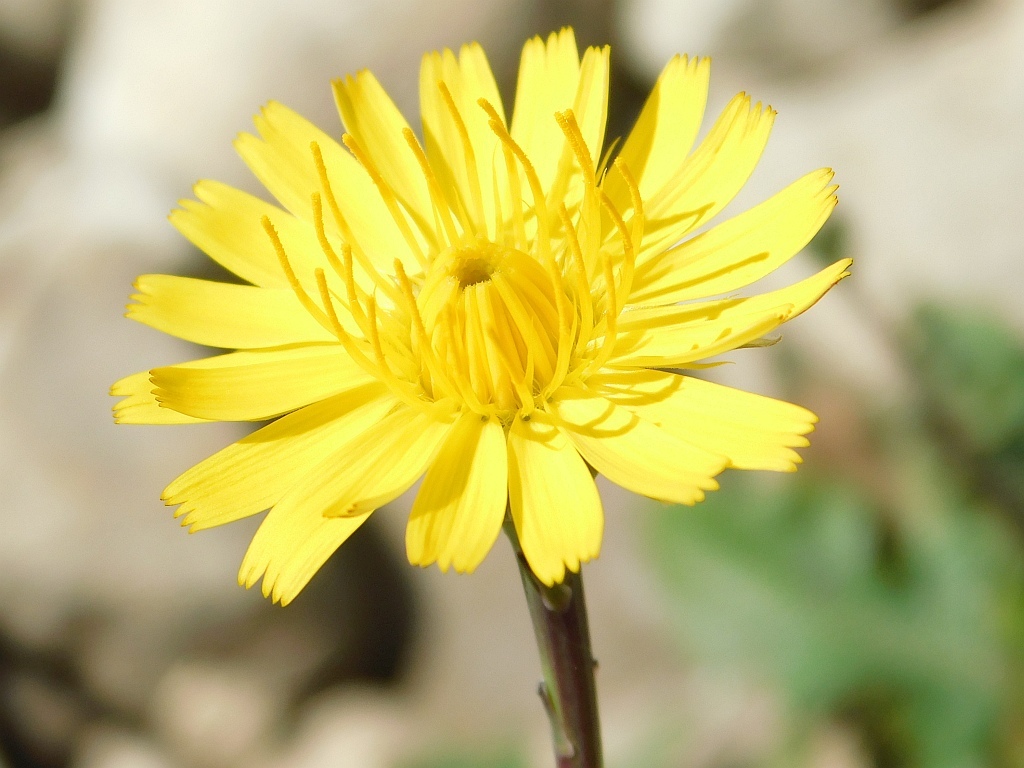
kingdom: Plantae
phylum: Tracheophyta
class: Magnoliopsida
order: Asterales
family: Asteraceae
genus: Hypochaeris
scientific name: Hypochaeris radicata
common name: Flatweed
